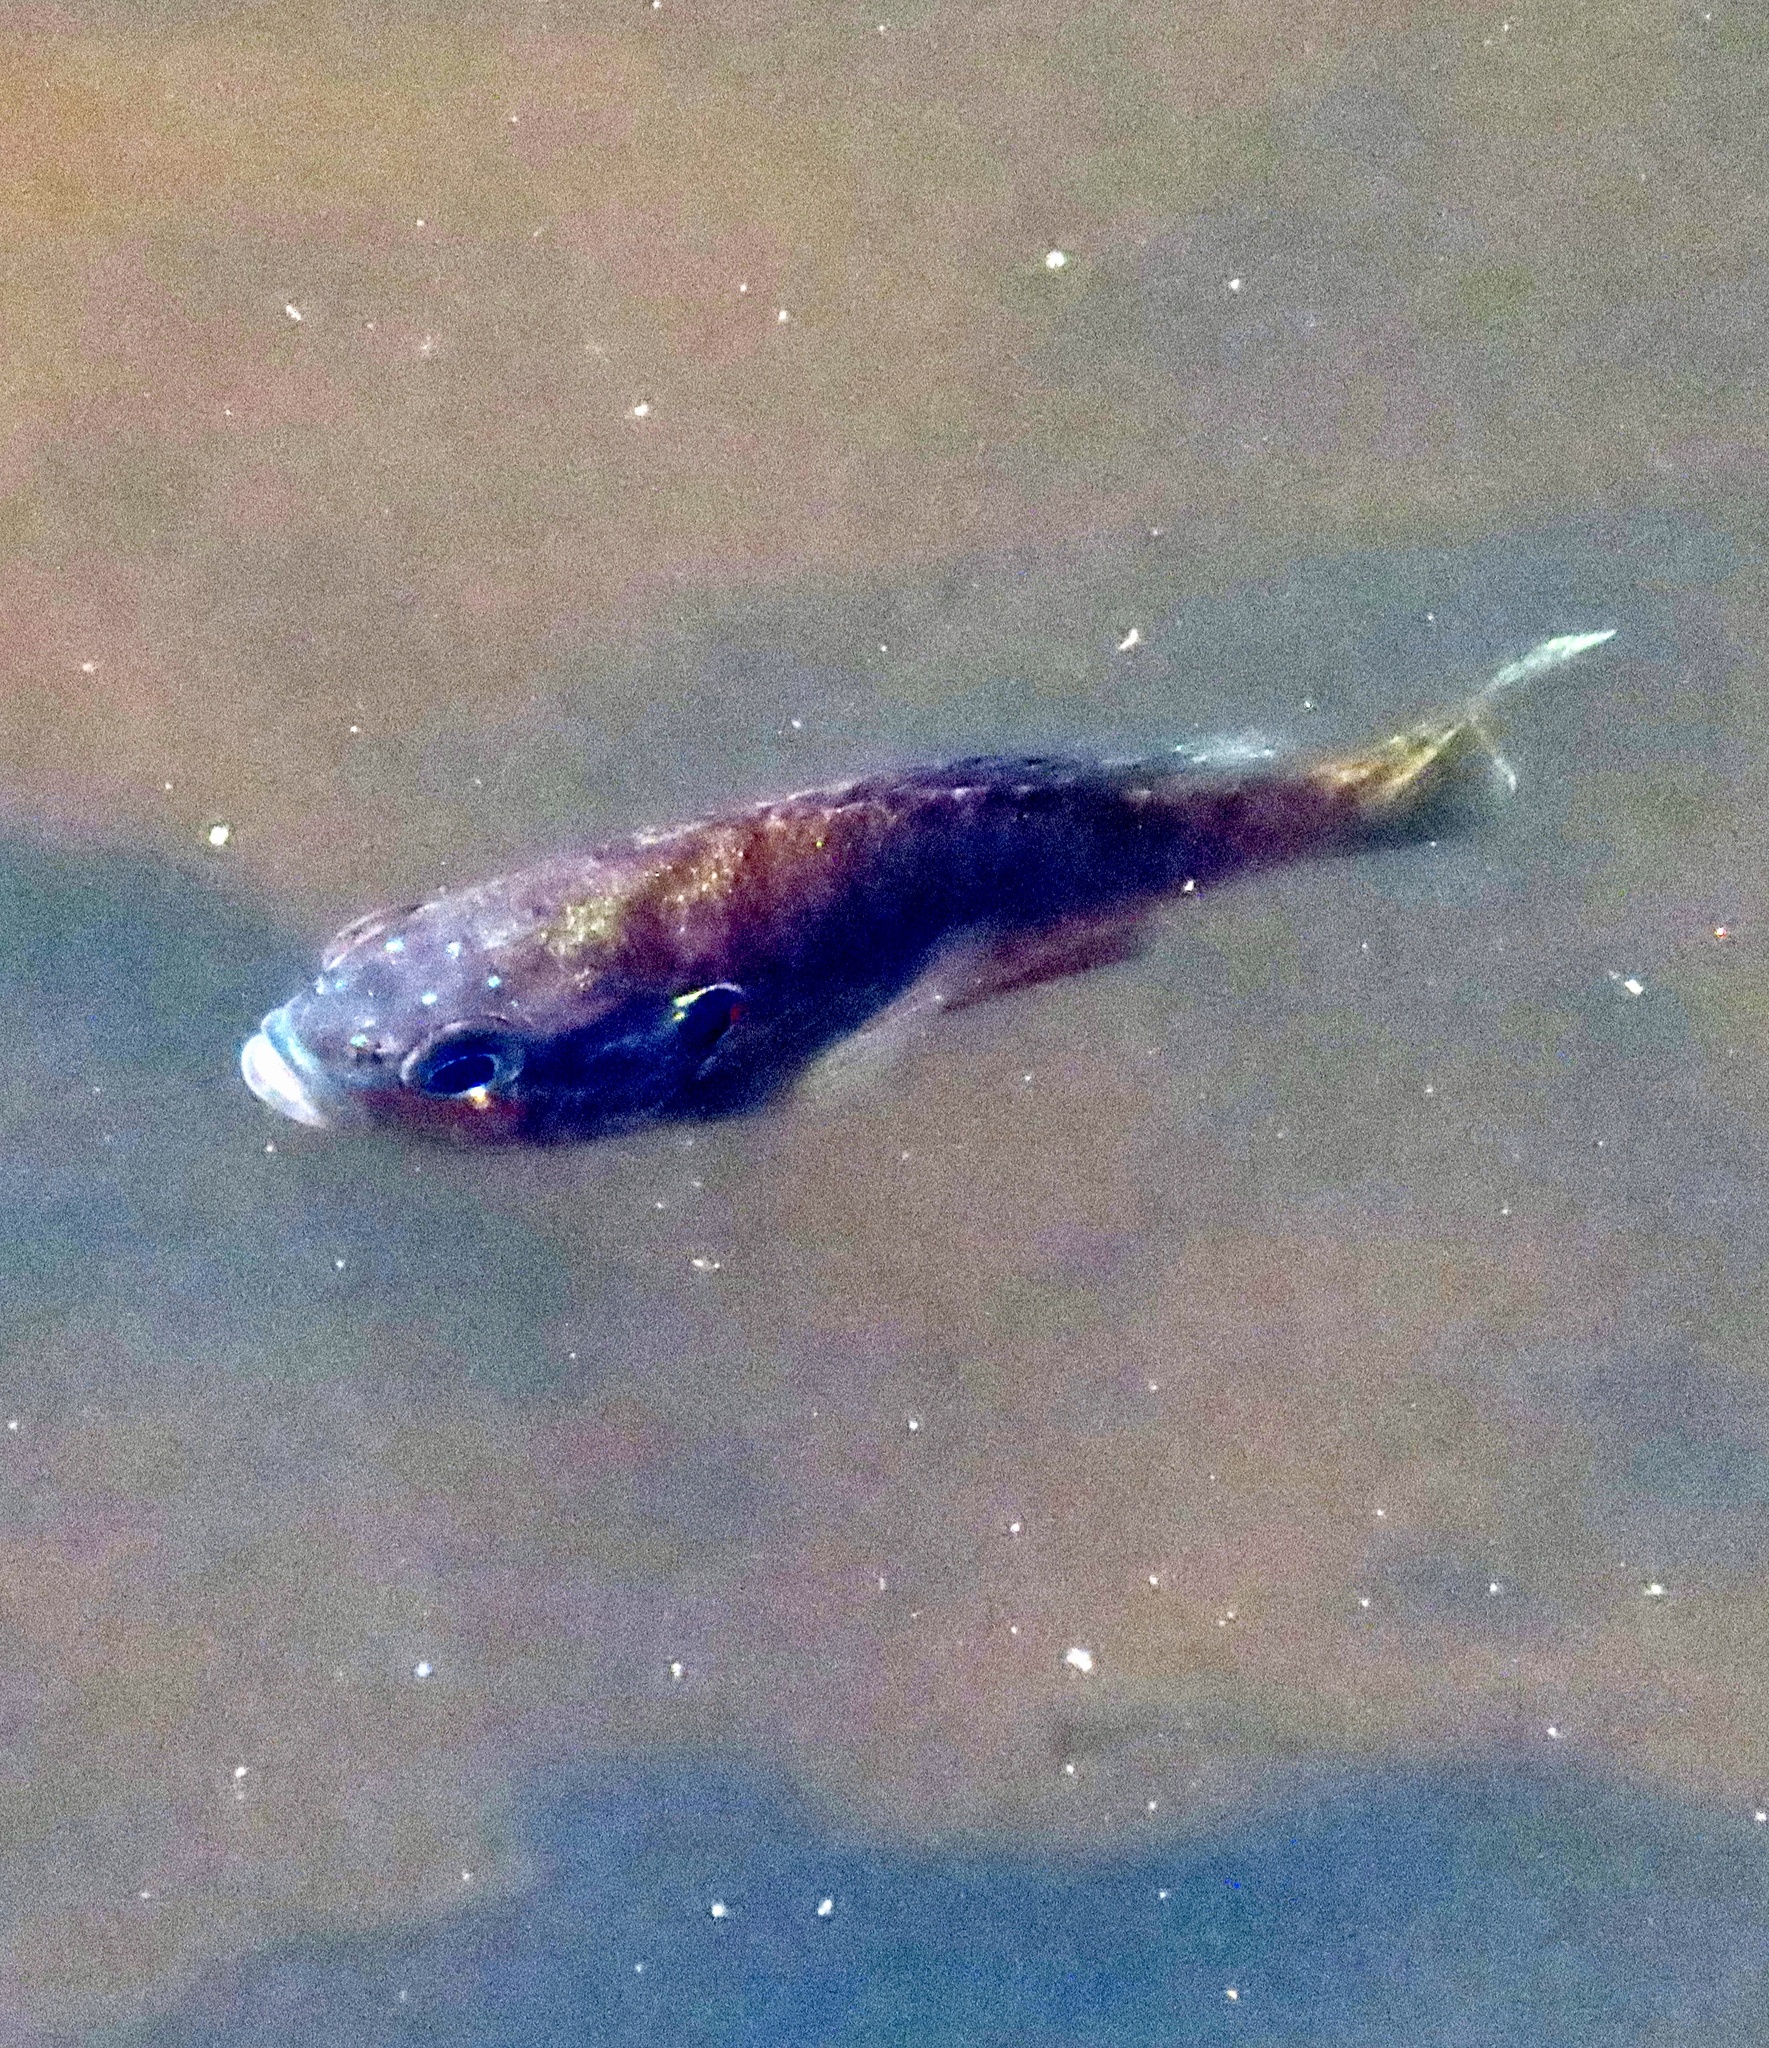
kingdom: Animalia
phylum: Chordata
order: Perciformes
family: Centrarchidae
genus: Lepomis
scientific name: Lepomis gibbosus
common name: Pumpkinseed
